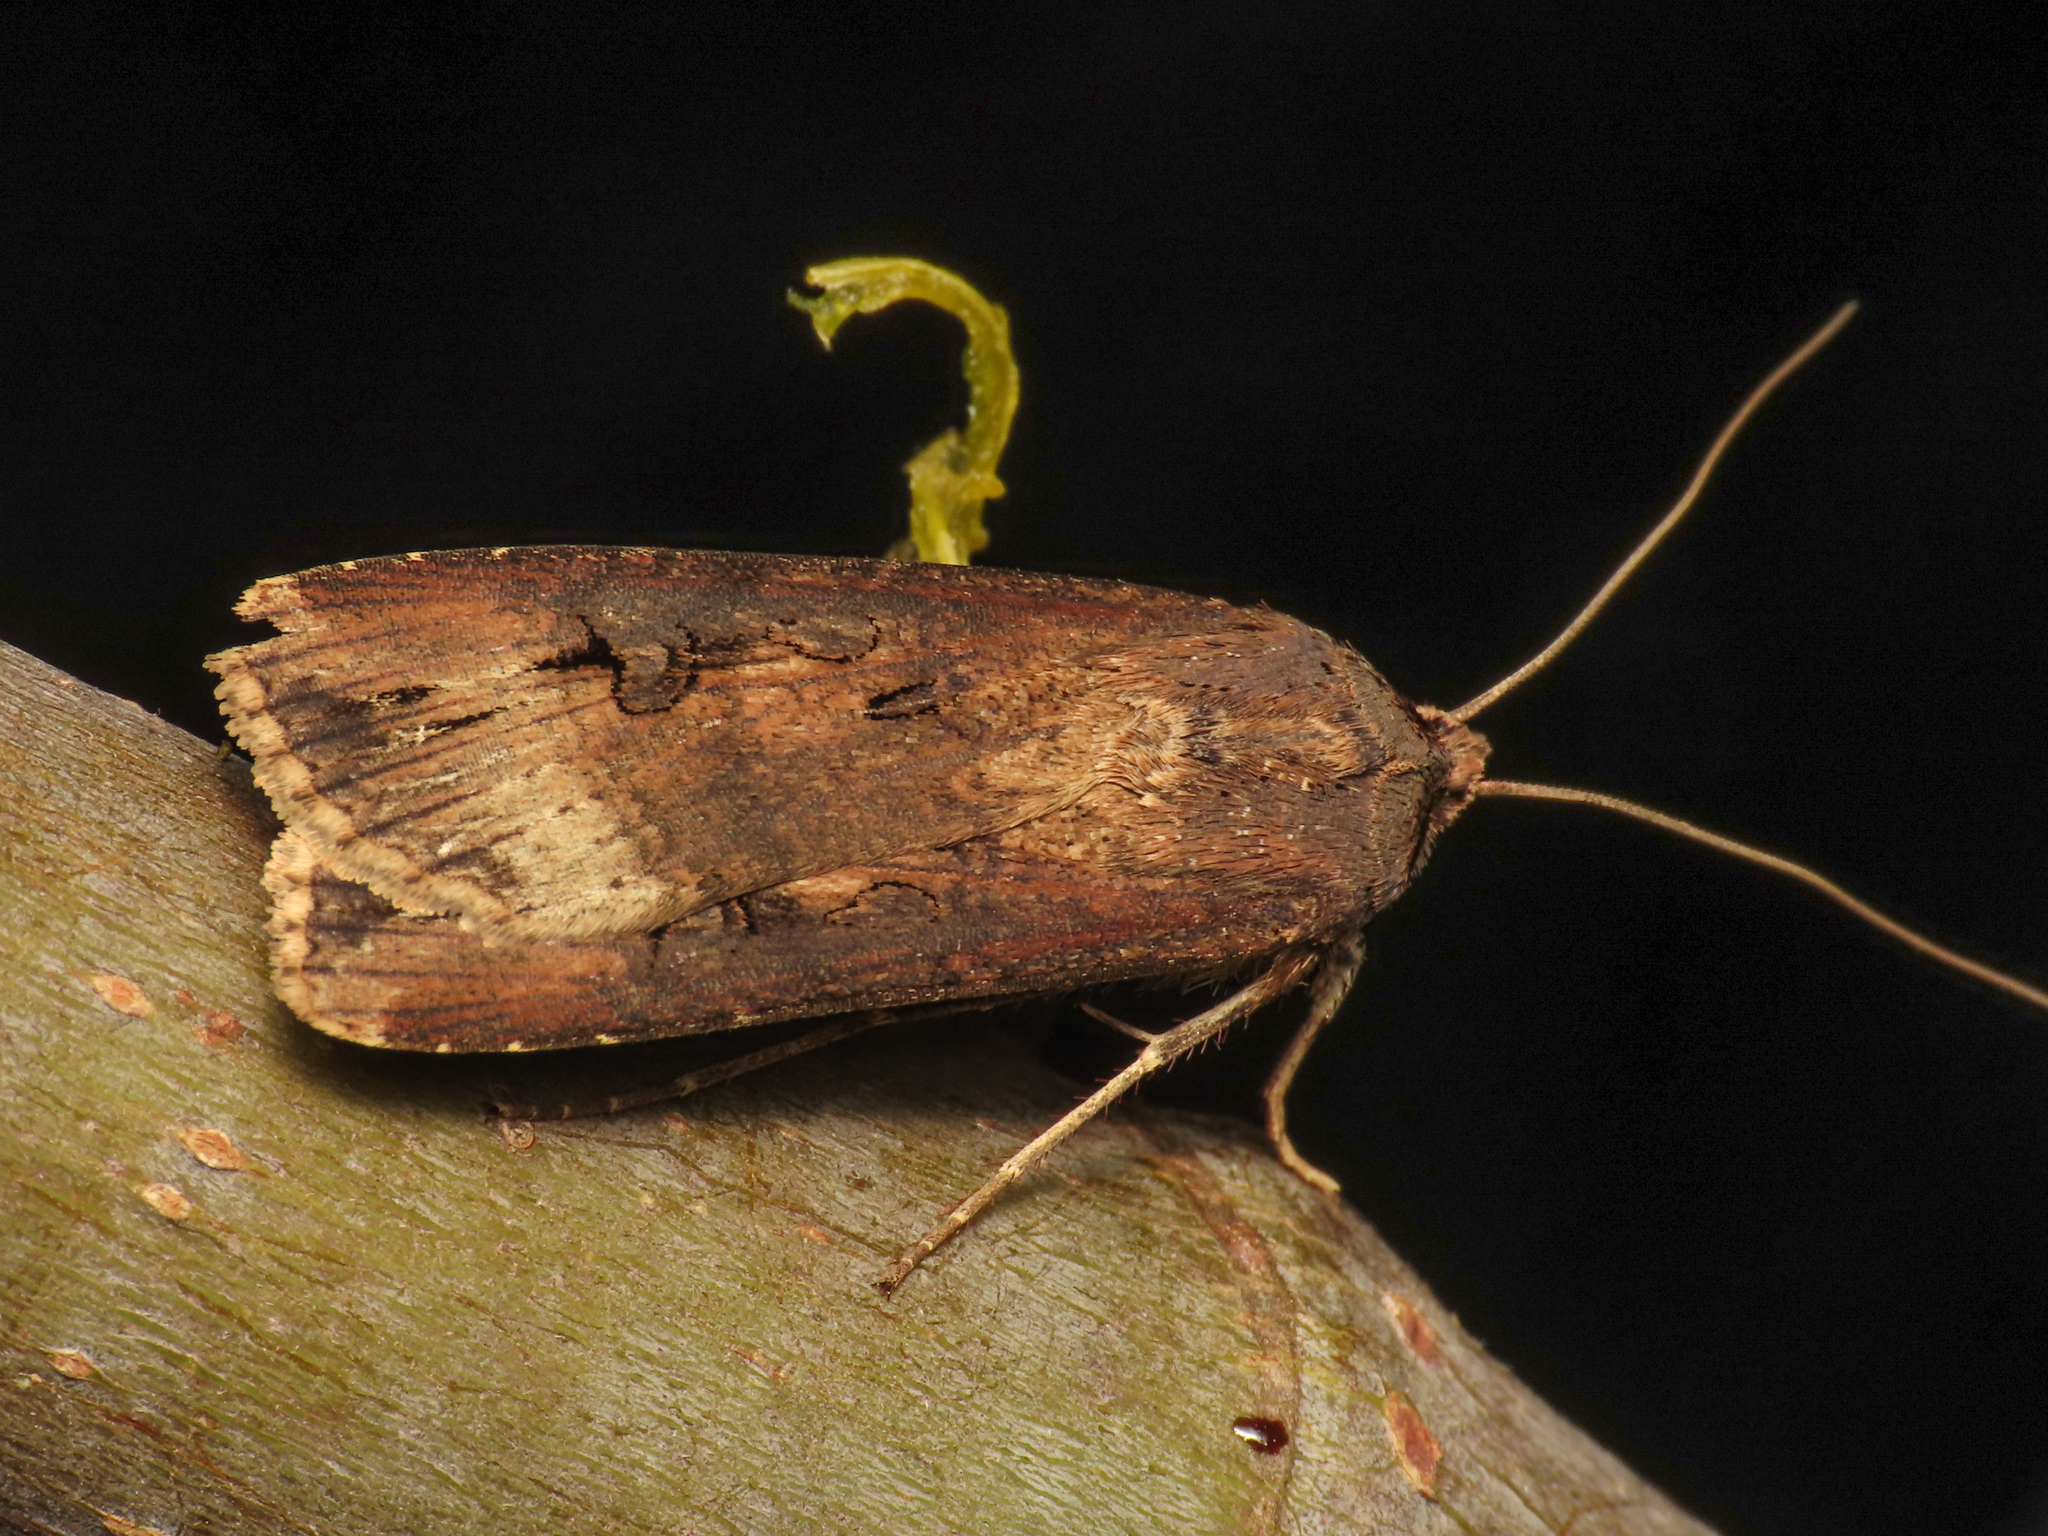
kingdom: Animalia
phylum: Arthropoda
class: Insecta
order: Lepidoptera
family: Noctuidae
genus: Agrotis
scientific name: Agrotis ipsilon
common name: Dark sword-grass
